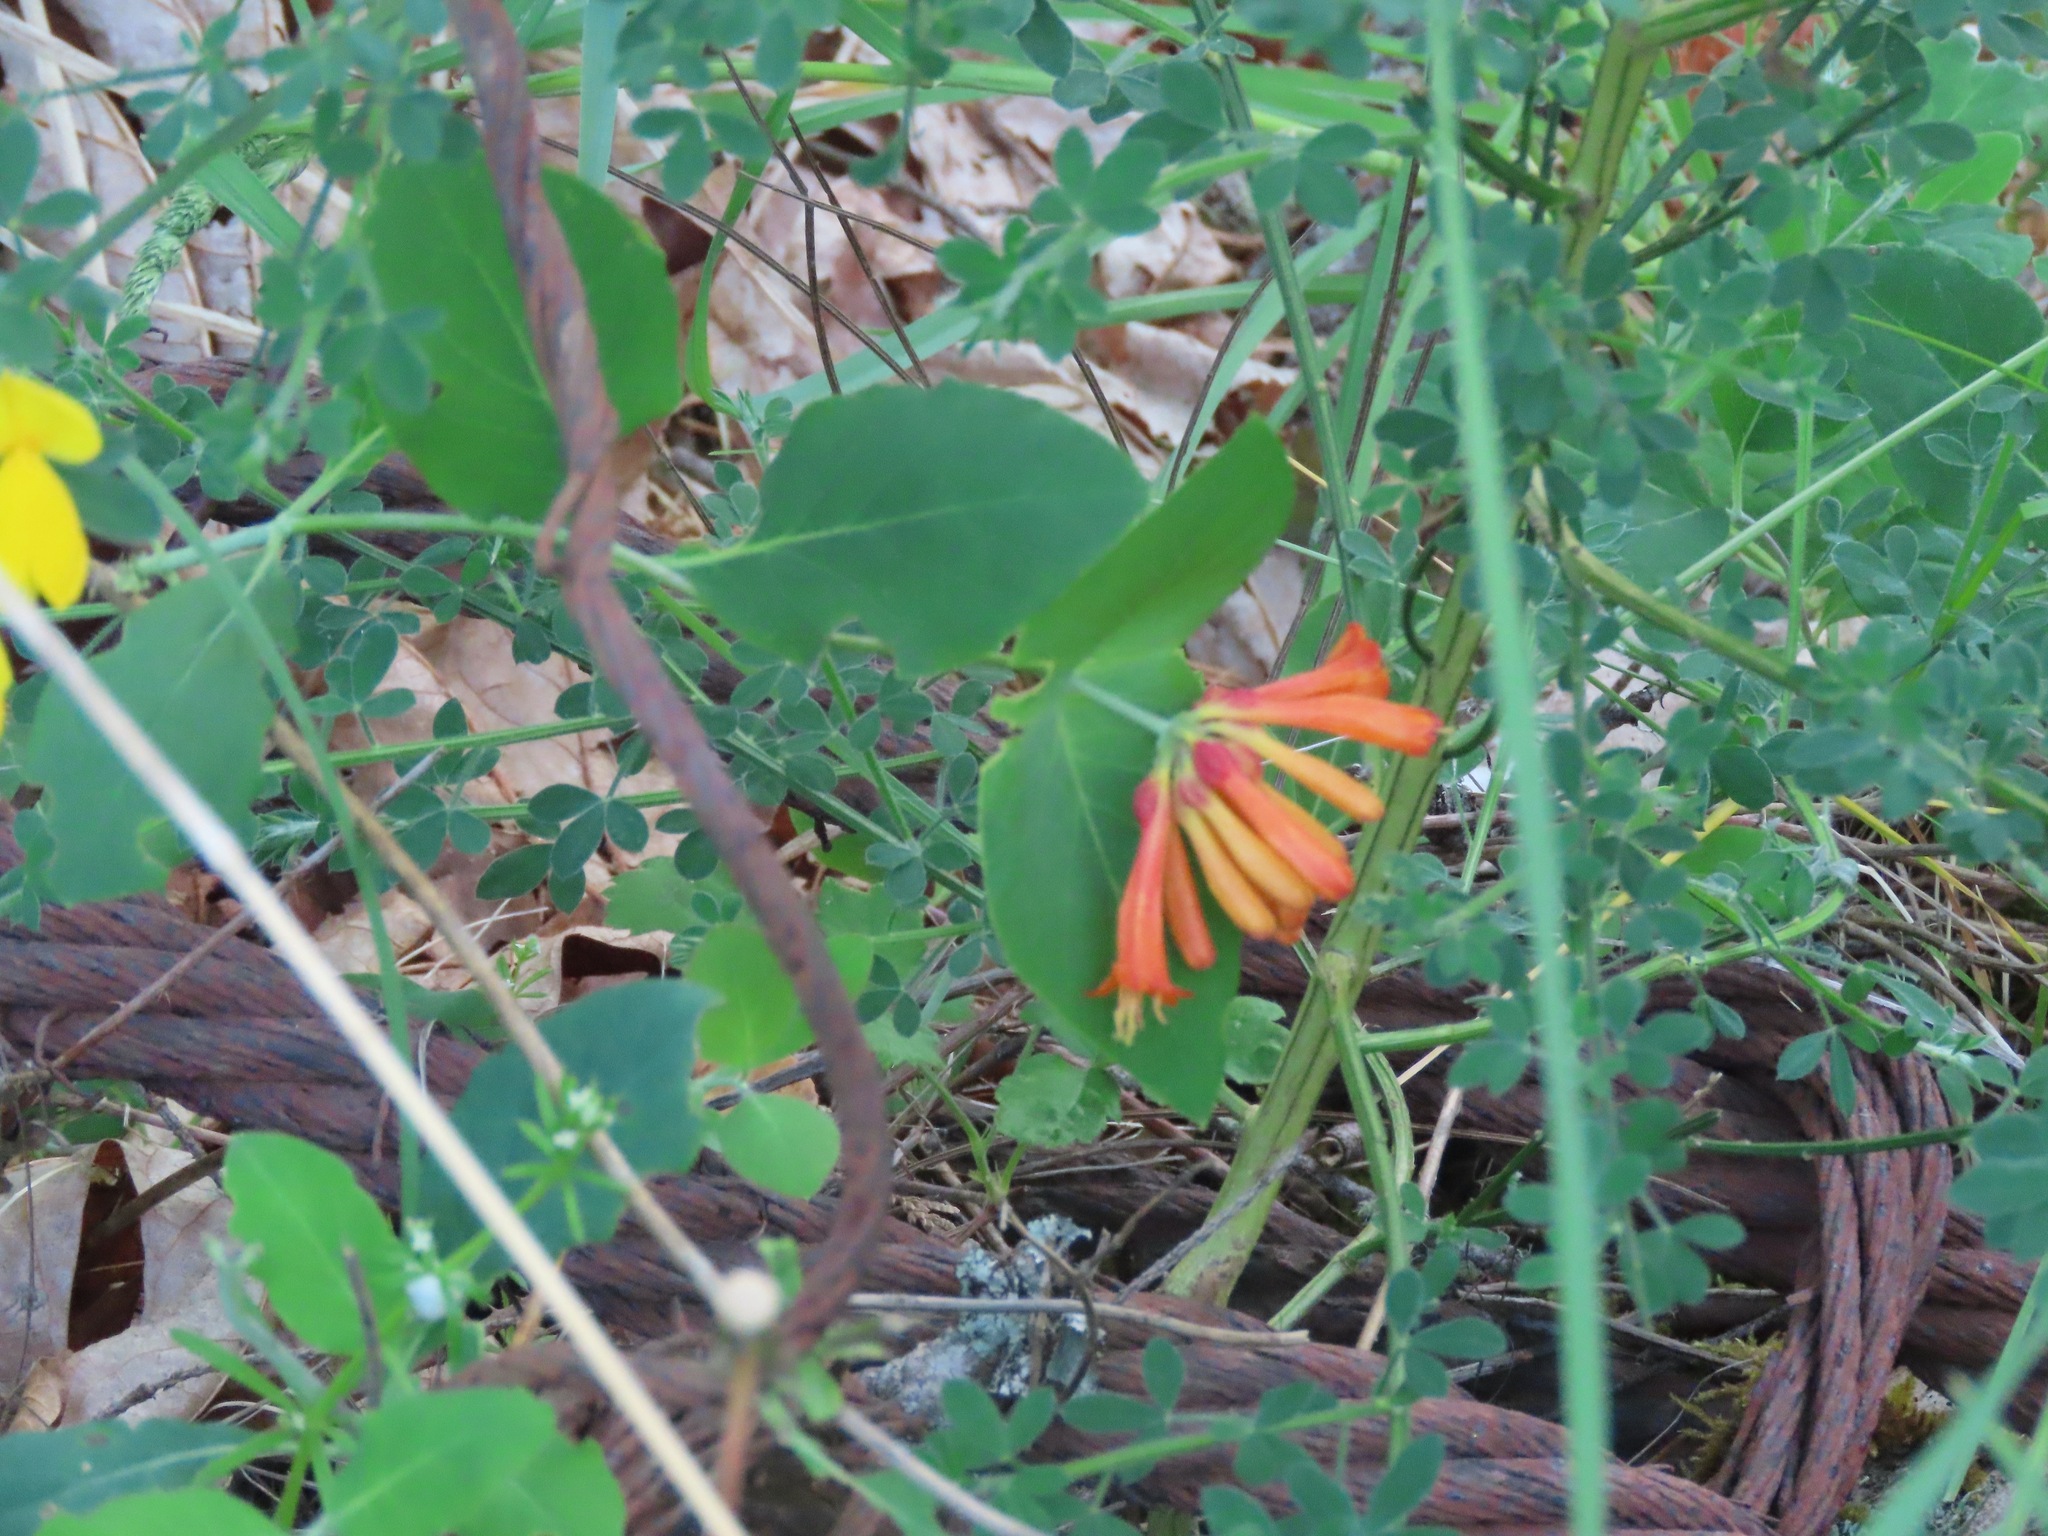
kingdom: Plantae
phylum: Tracheophyta
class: Magnoliopsida
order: Dipsacales
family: Caprifoliaceae
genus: Lonicera
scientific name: Lonicera ciliosa
